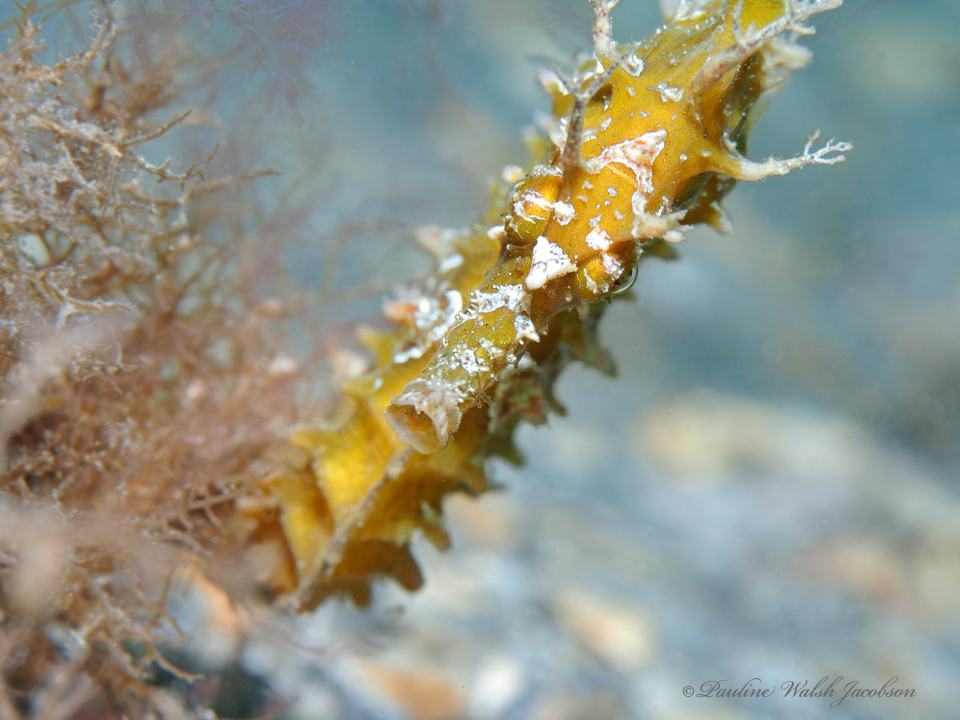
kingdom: Animalia
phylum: Chordata
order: Syngnathiformes
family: Syngnathidae
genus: Hippocampus
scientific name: Hippocampus erectus
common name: Lined seahorse
